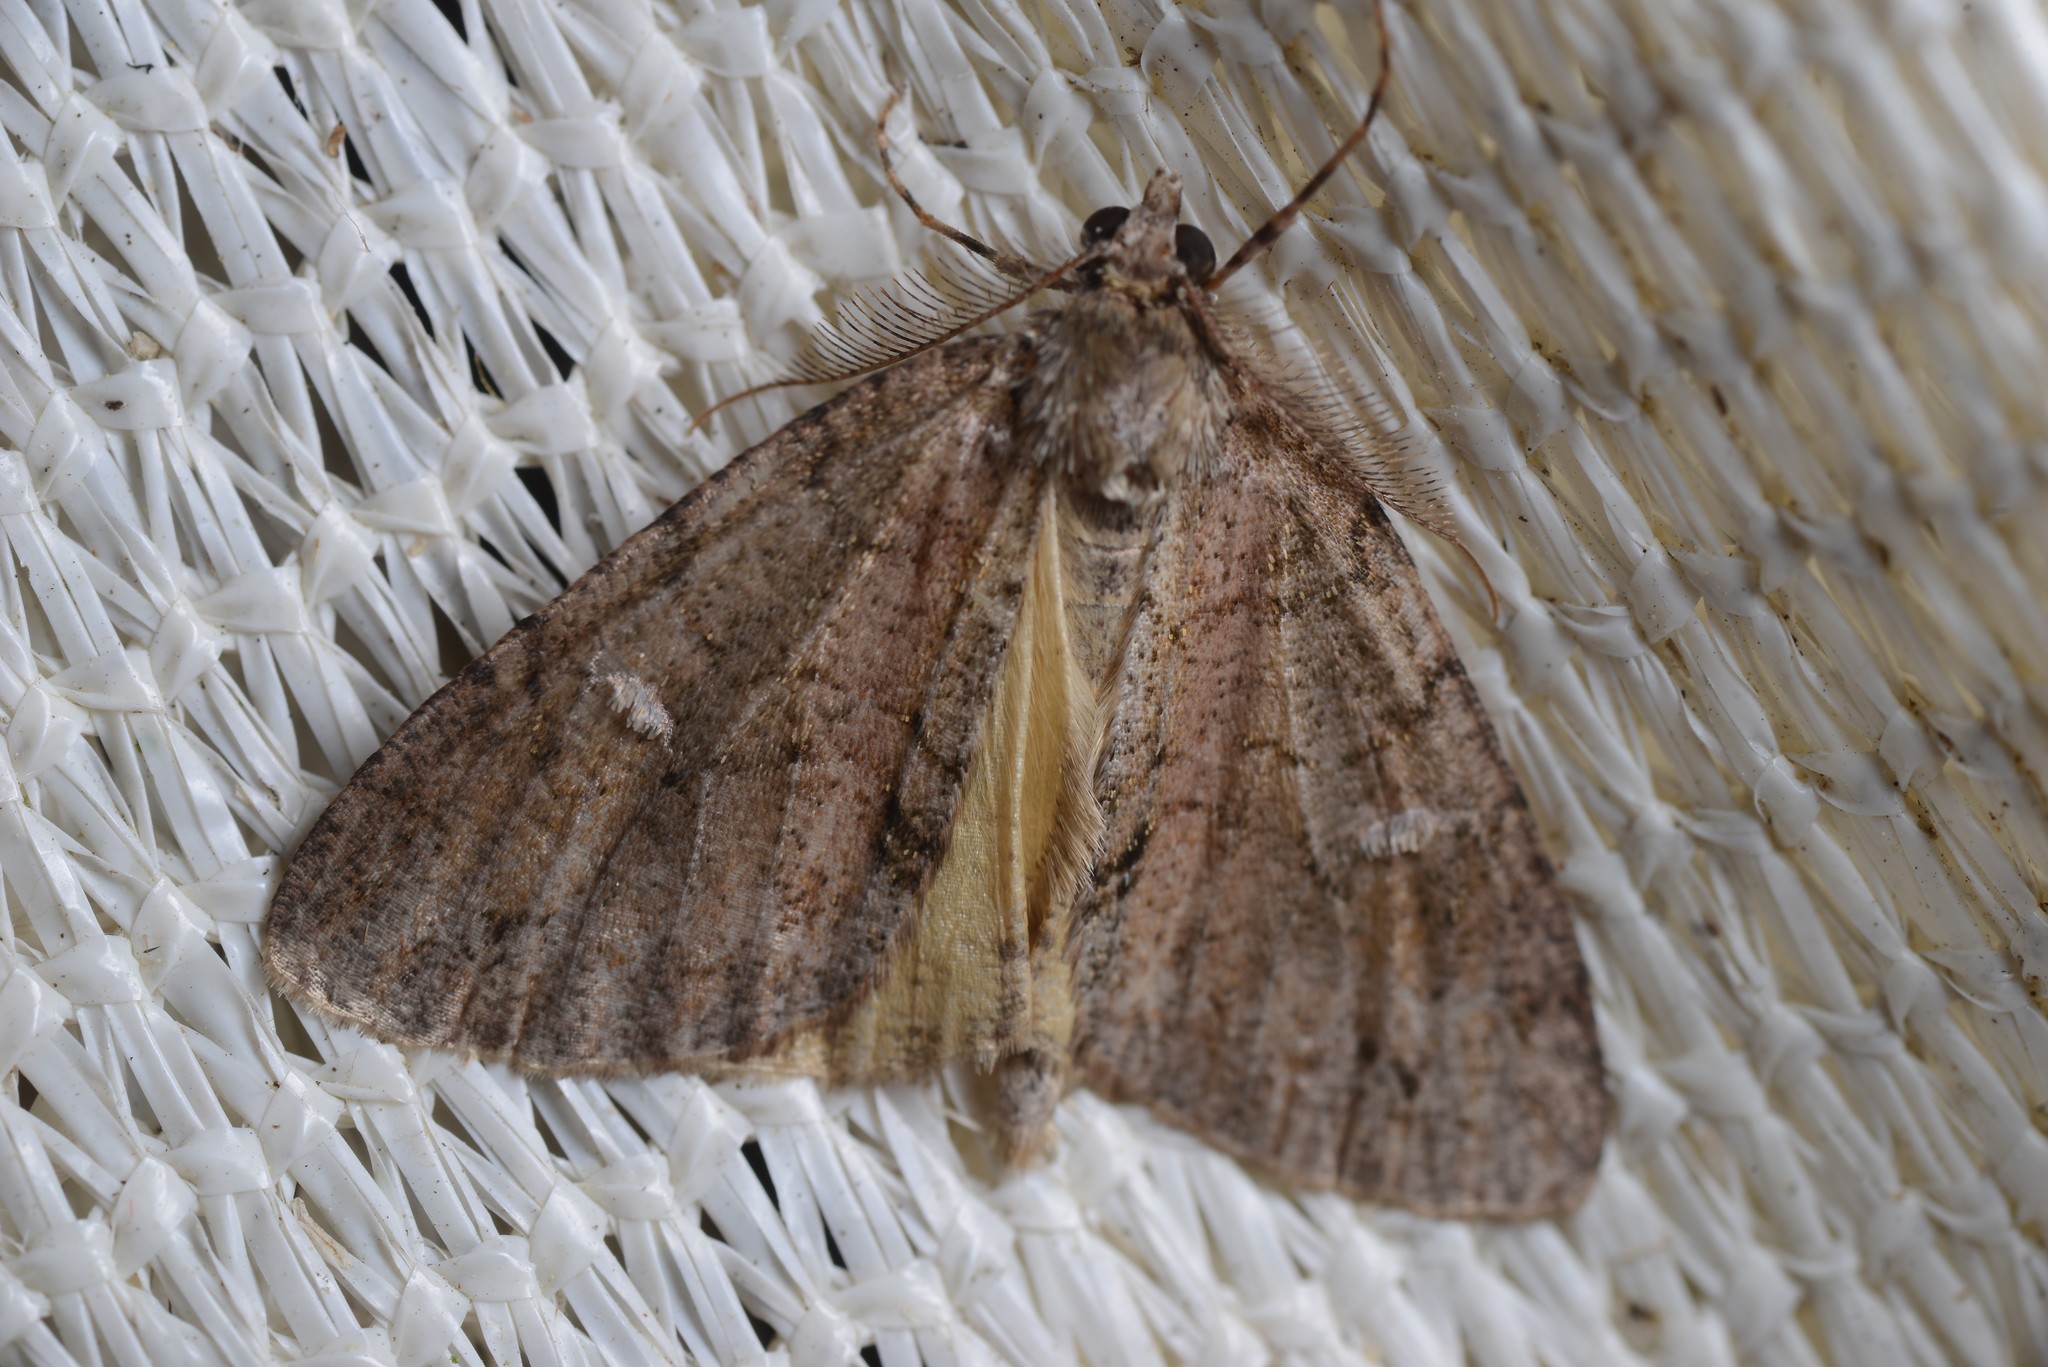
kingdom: Animalia
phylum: Arthropoda
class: Insecta
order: Lepidoptera
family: Geometridae
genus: Pseudocoremia
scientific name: Pseudocoremia suavis
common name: Common forest looper
